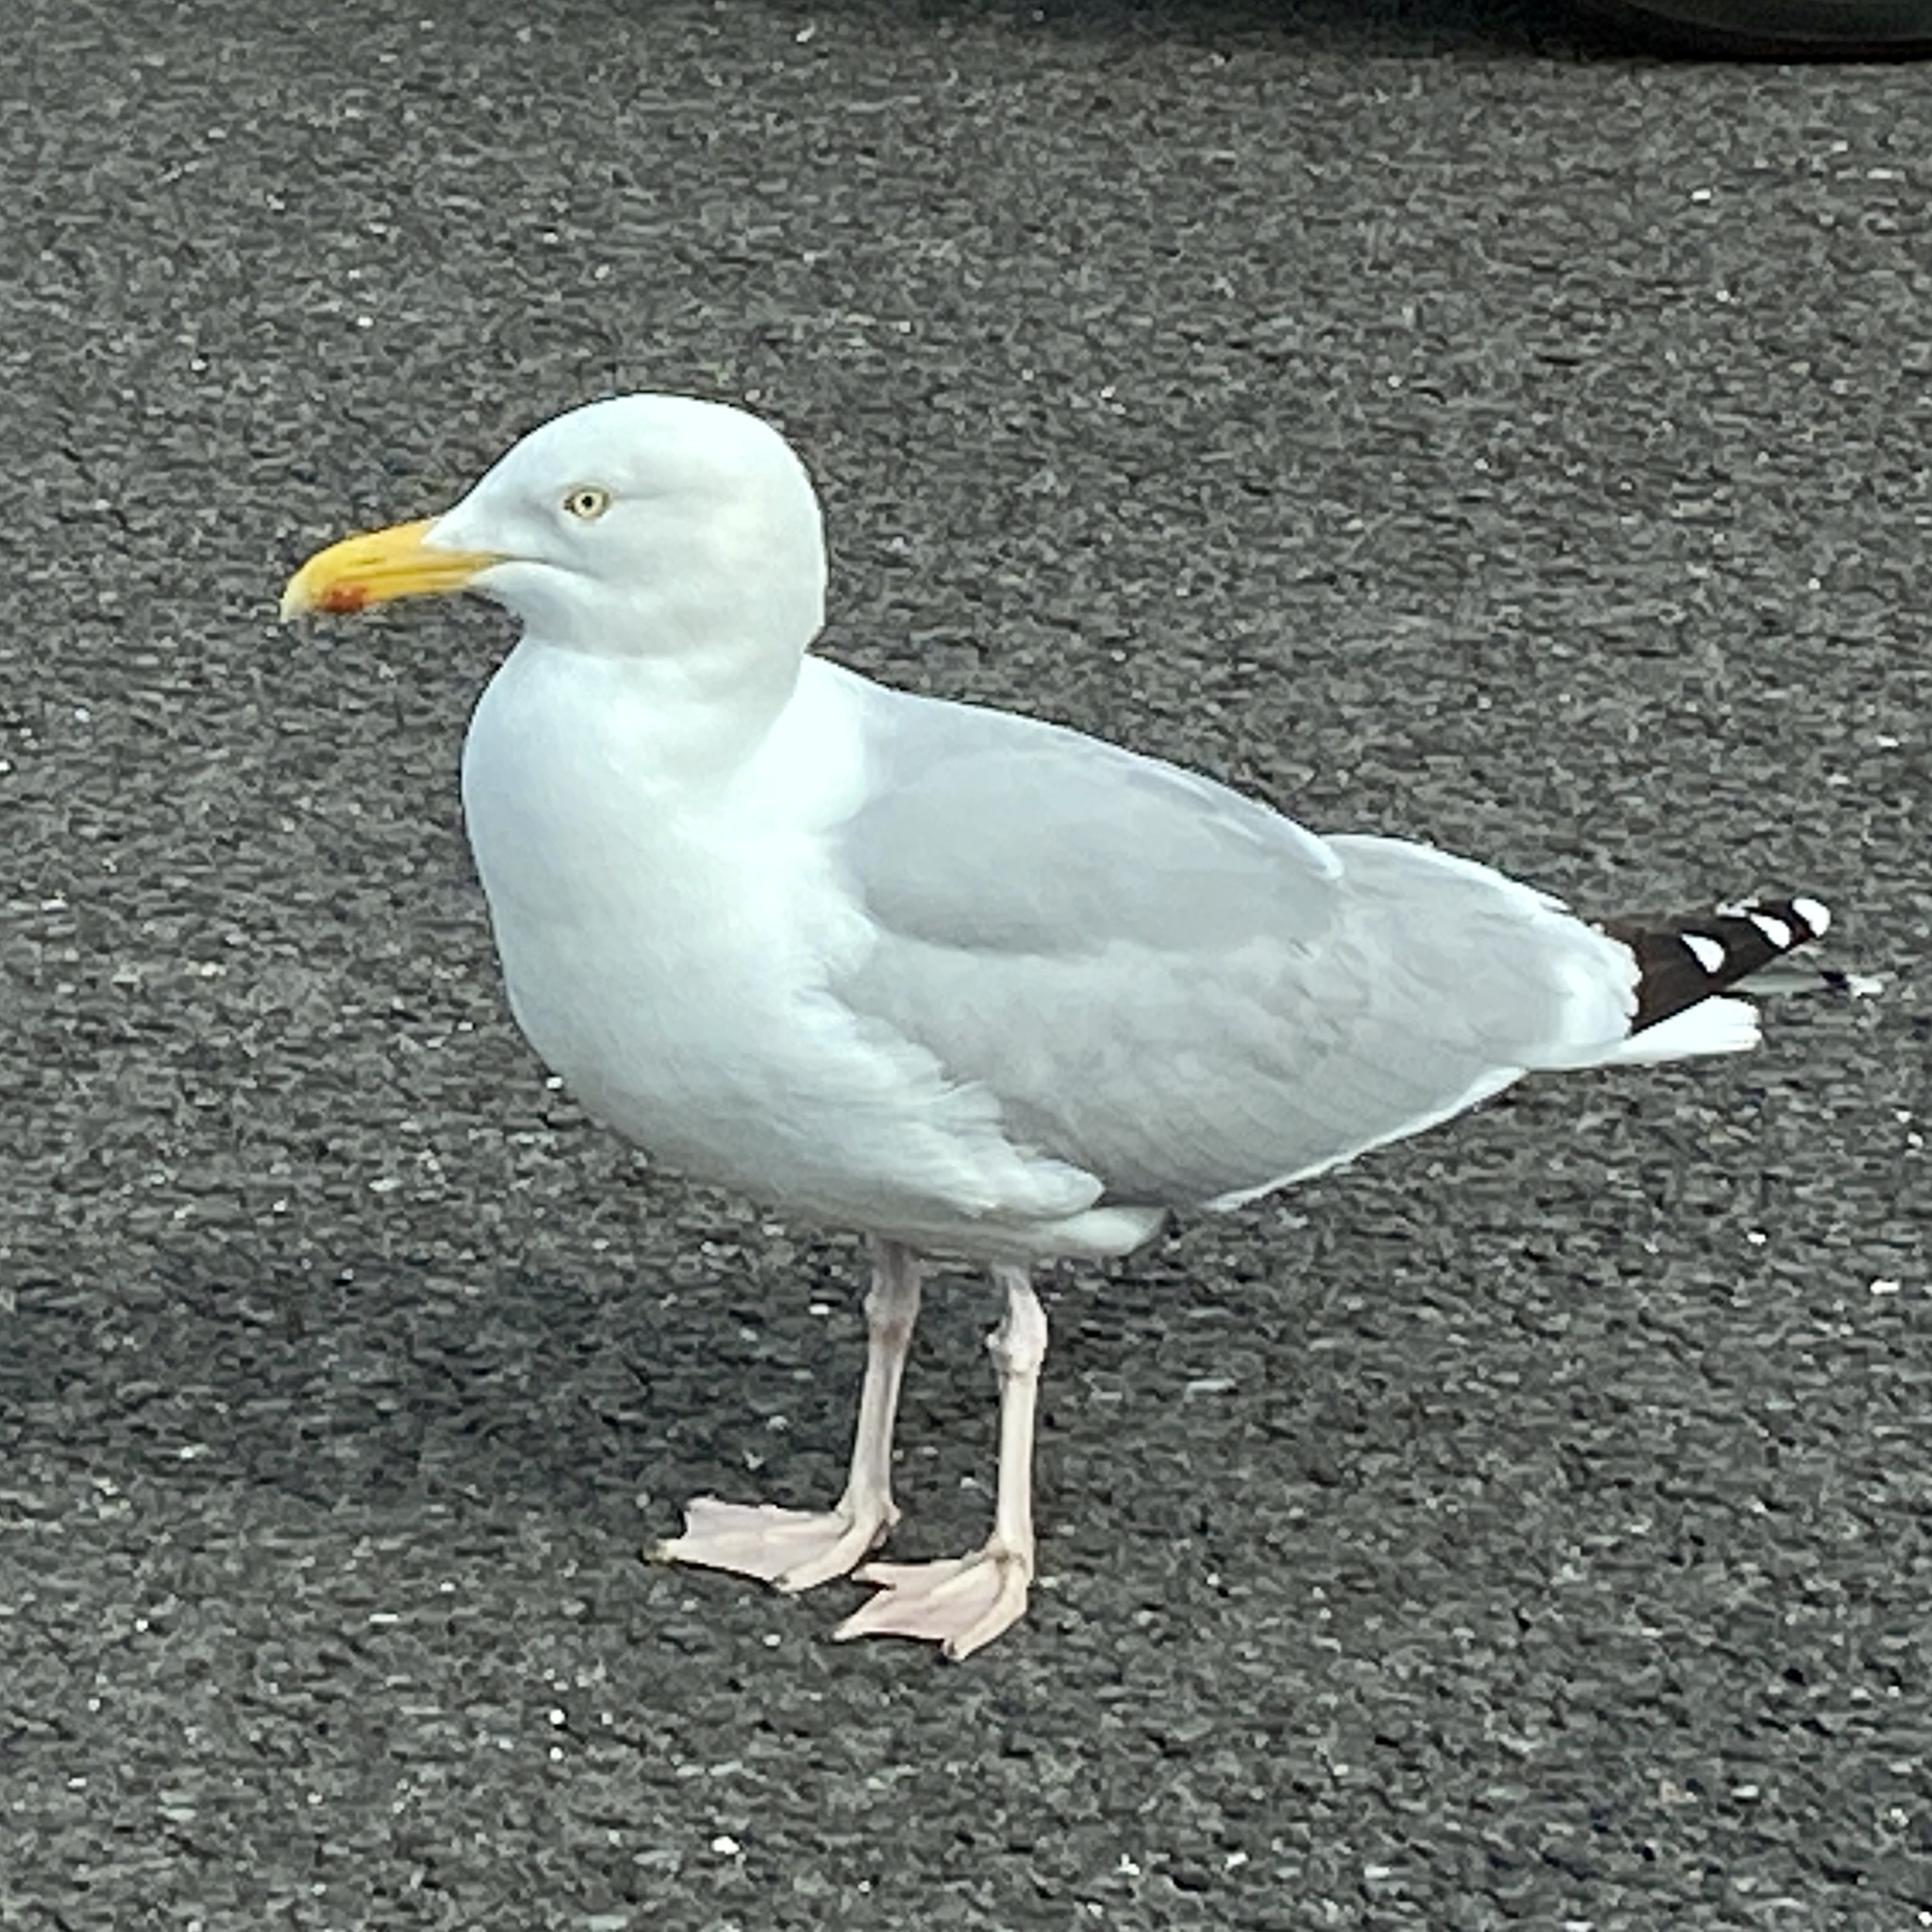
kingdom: Animalia
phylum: Chordata
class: Aves
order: Charadriiformes
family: Laridae
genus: Larus
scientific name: Larus argentatus
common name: Herring gull
